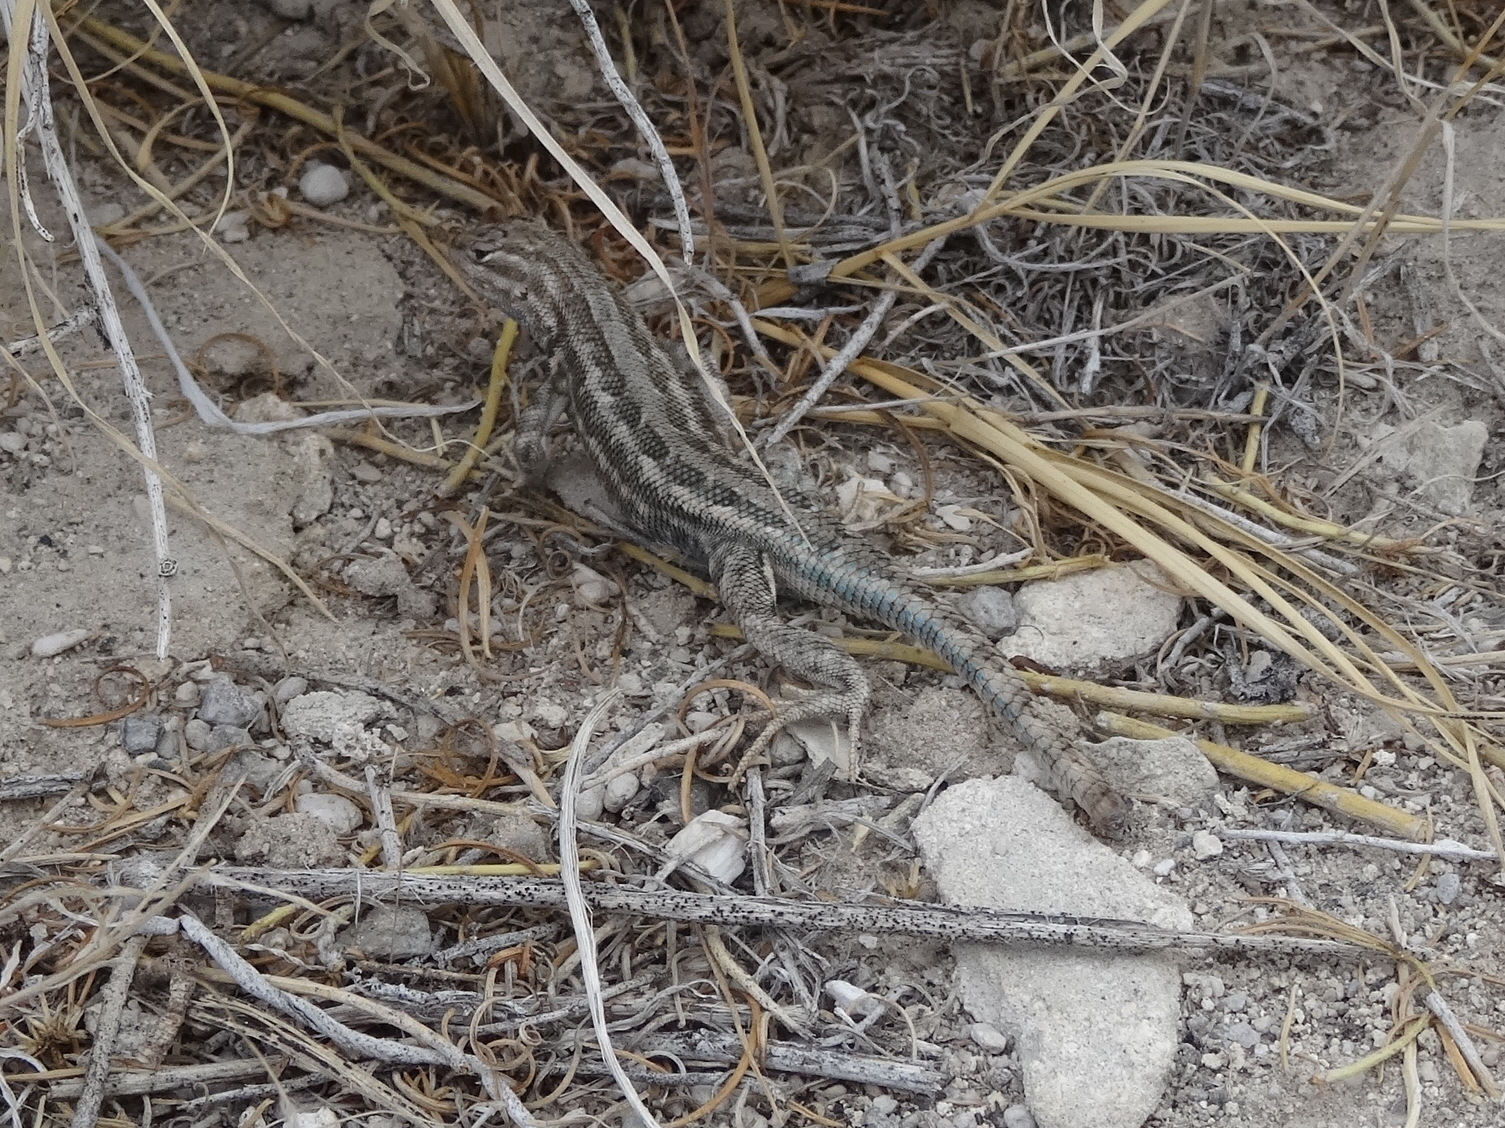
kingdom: Animalia
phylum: Chordata
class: Squamata
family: Phrynosomatidae
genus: Sceloporus
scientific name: Sceloporus graciosus
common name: Sagebrush lizard
